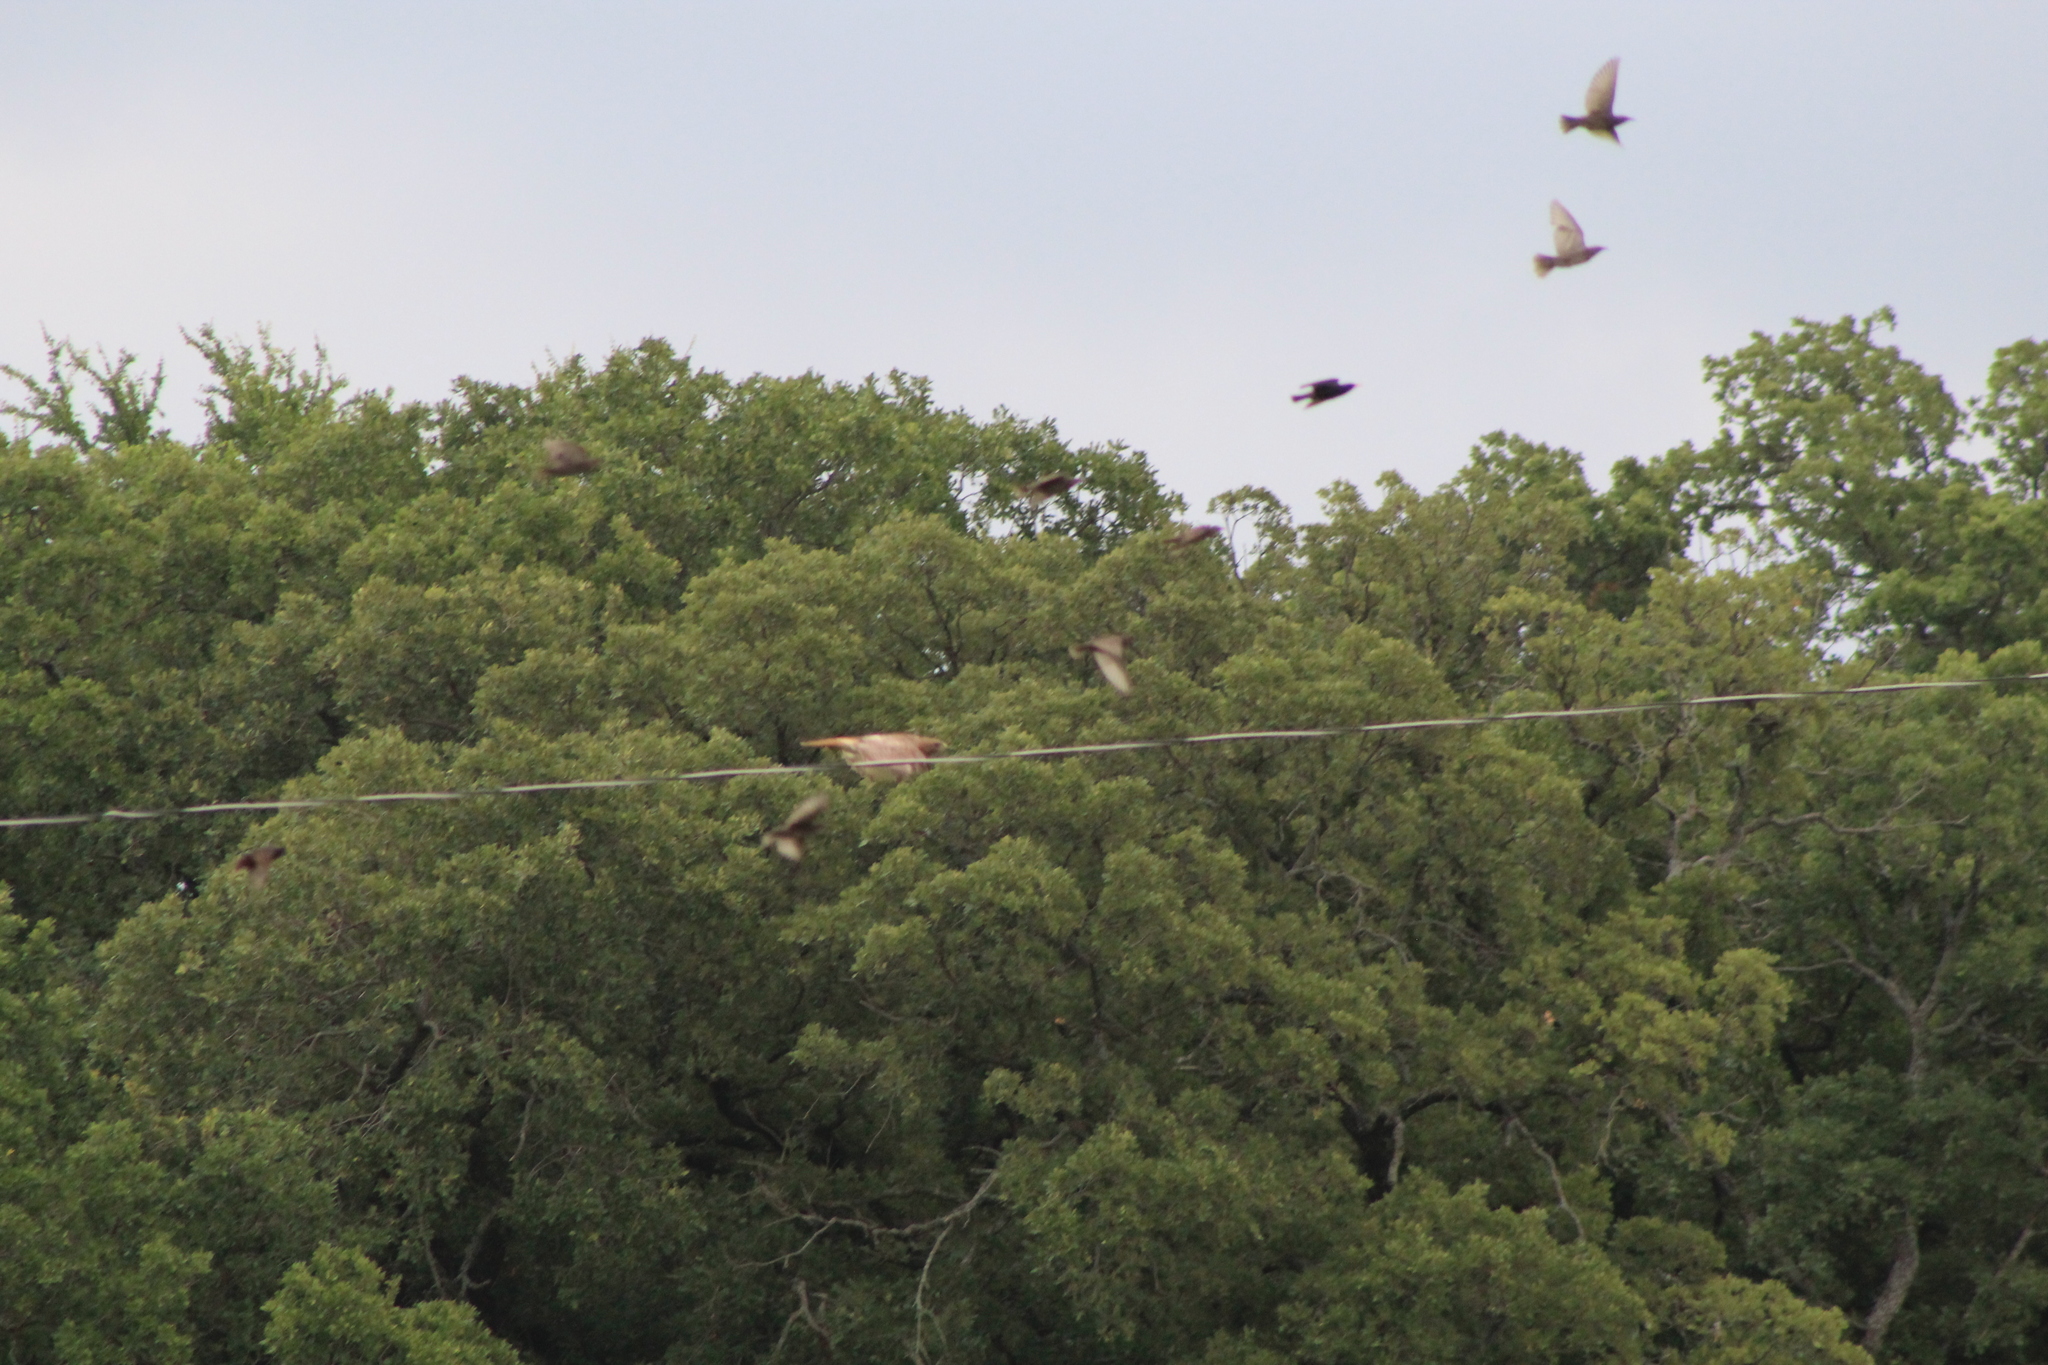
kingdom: Animalia
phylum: Chordata
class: Aves
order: Accipitriformes
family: Accipitridae
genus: Buteo
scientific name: Buteo jamaicensis
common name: Red-tailed hawk
